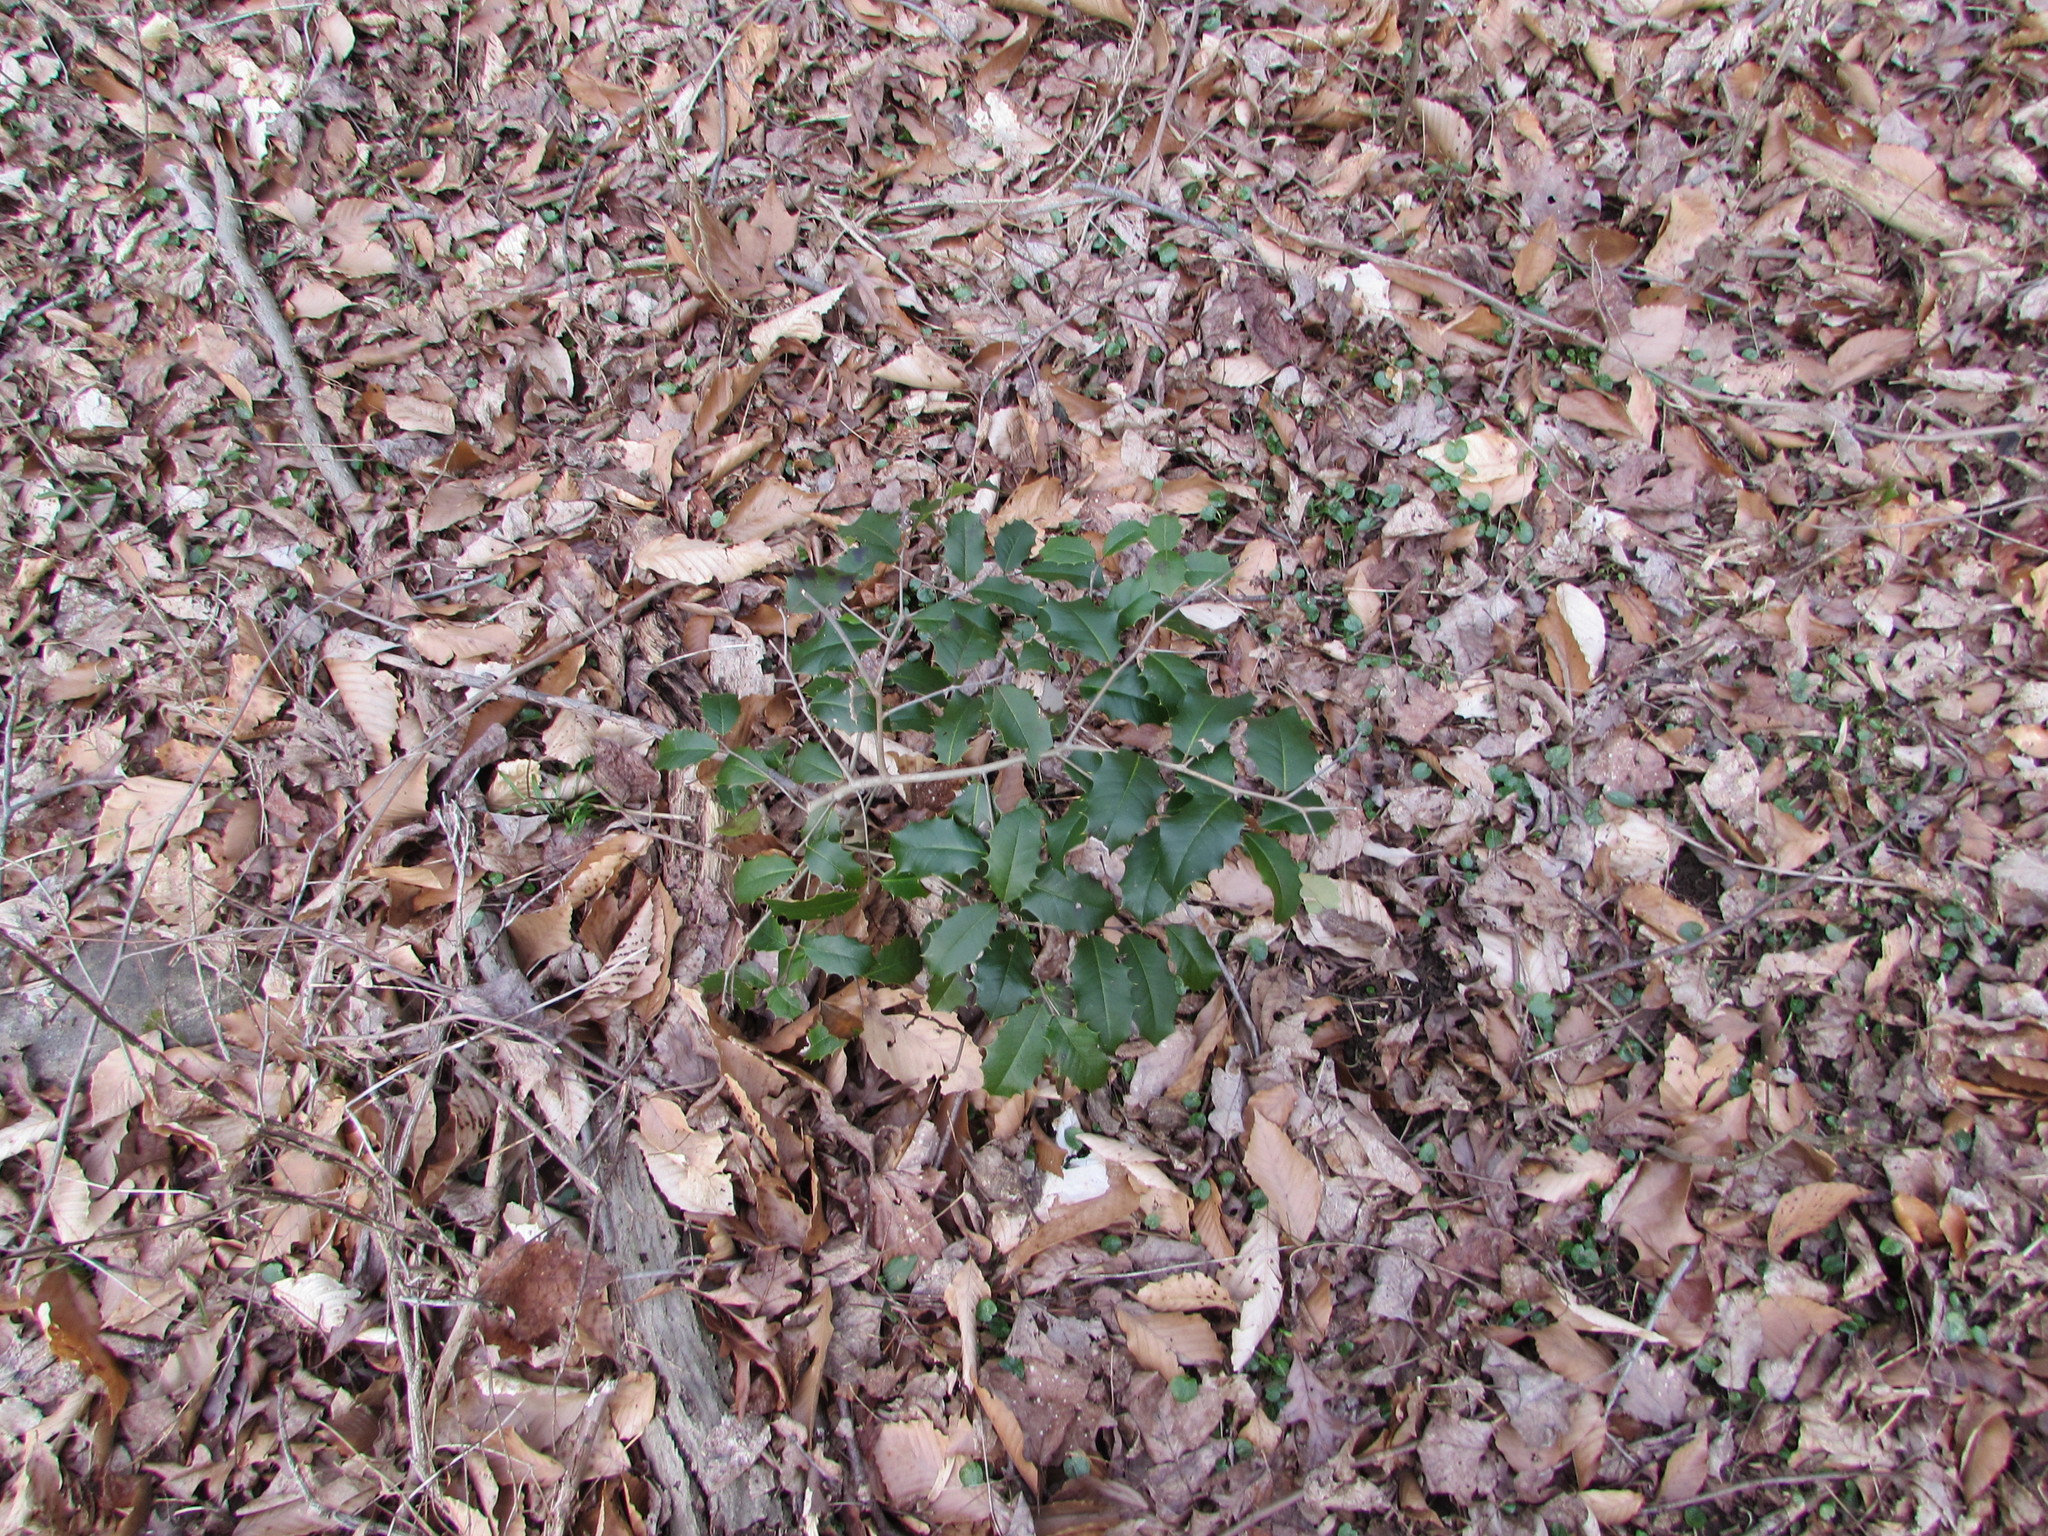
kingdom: Plantae
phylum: Tracheophyta
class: Magnoliopsida
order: Aquifoliales
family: Aquifoliaceae
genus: Ilex
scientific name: Ilex opaca
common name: American holly
